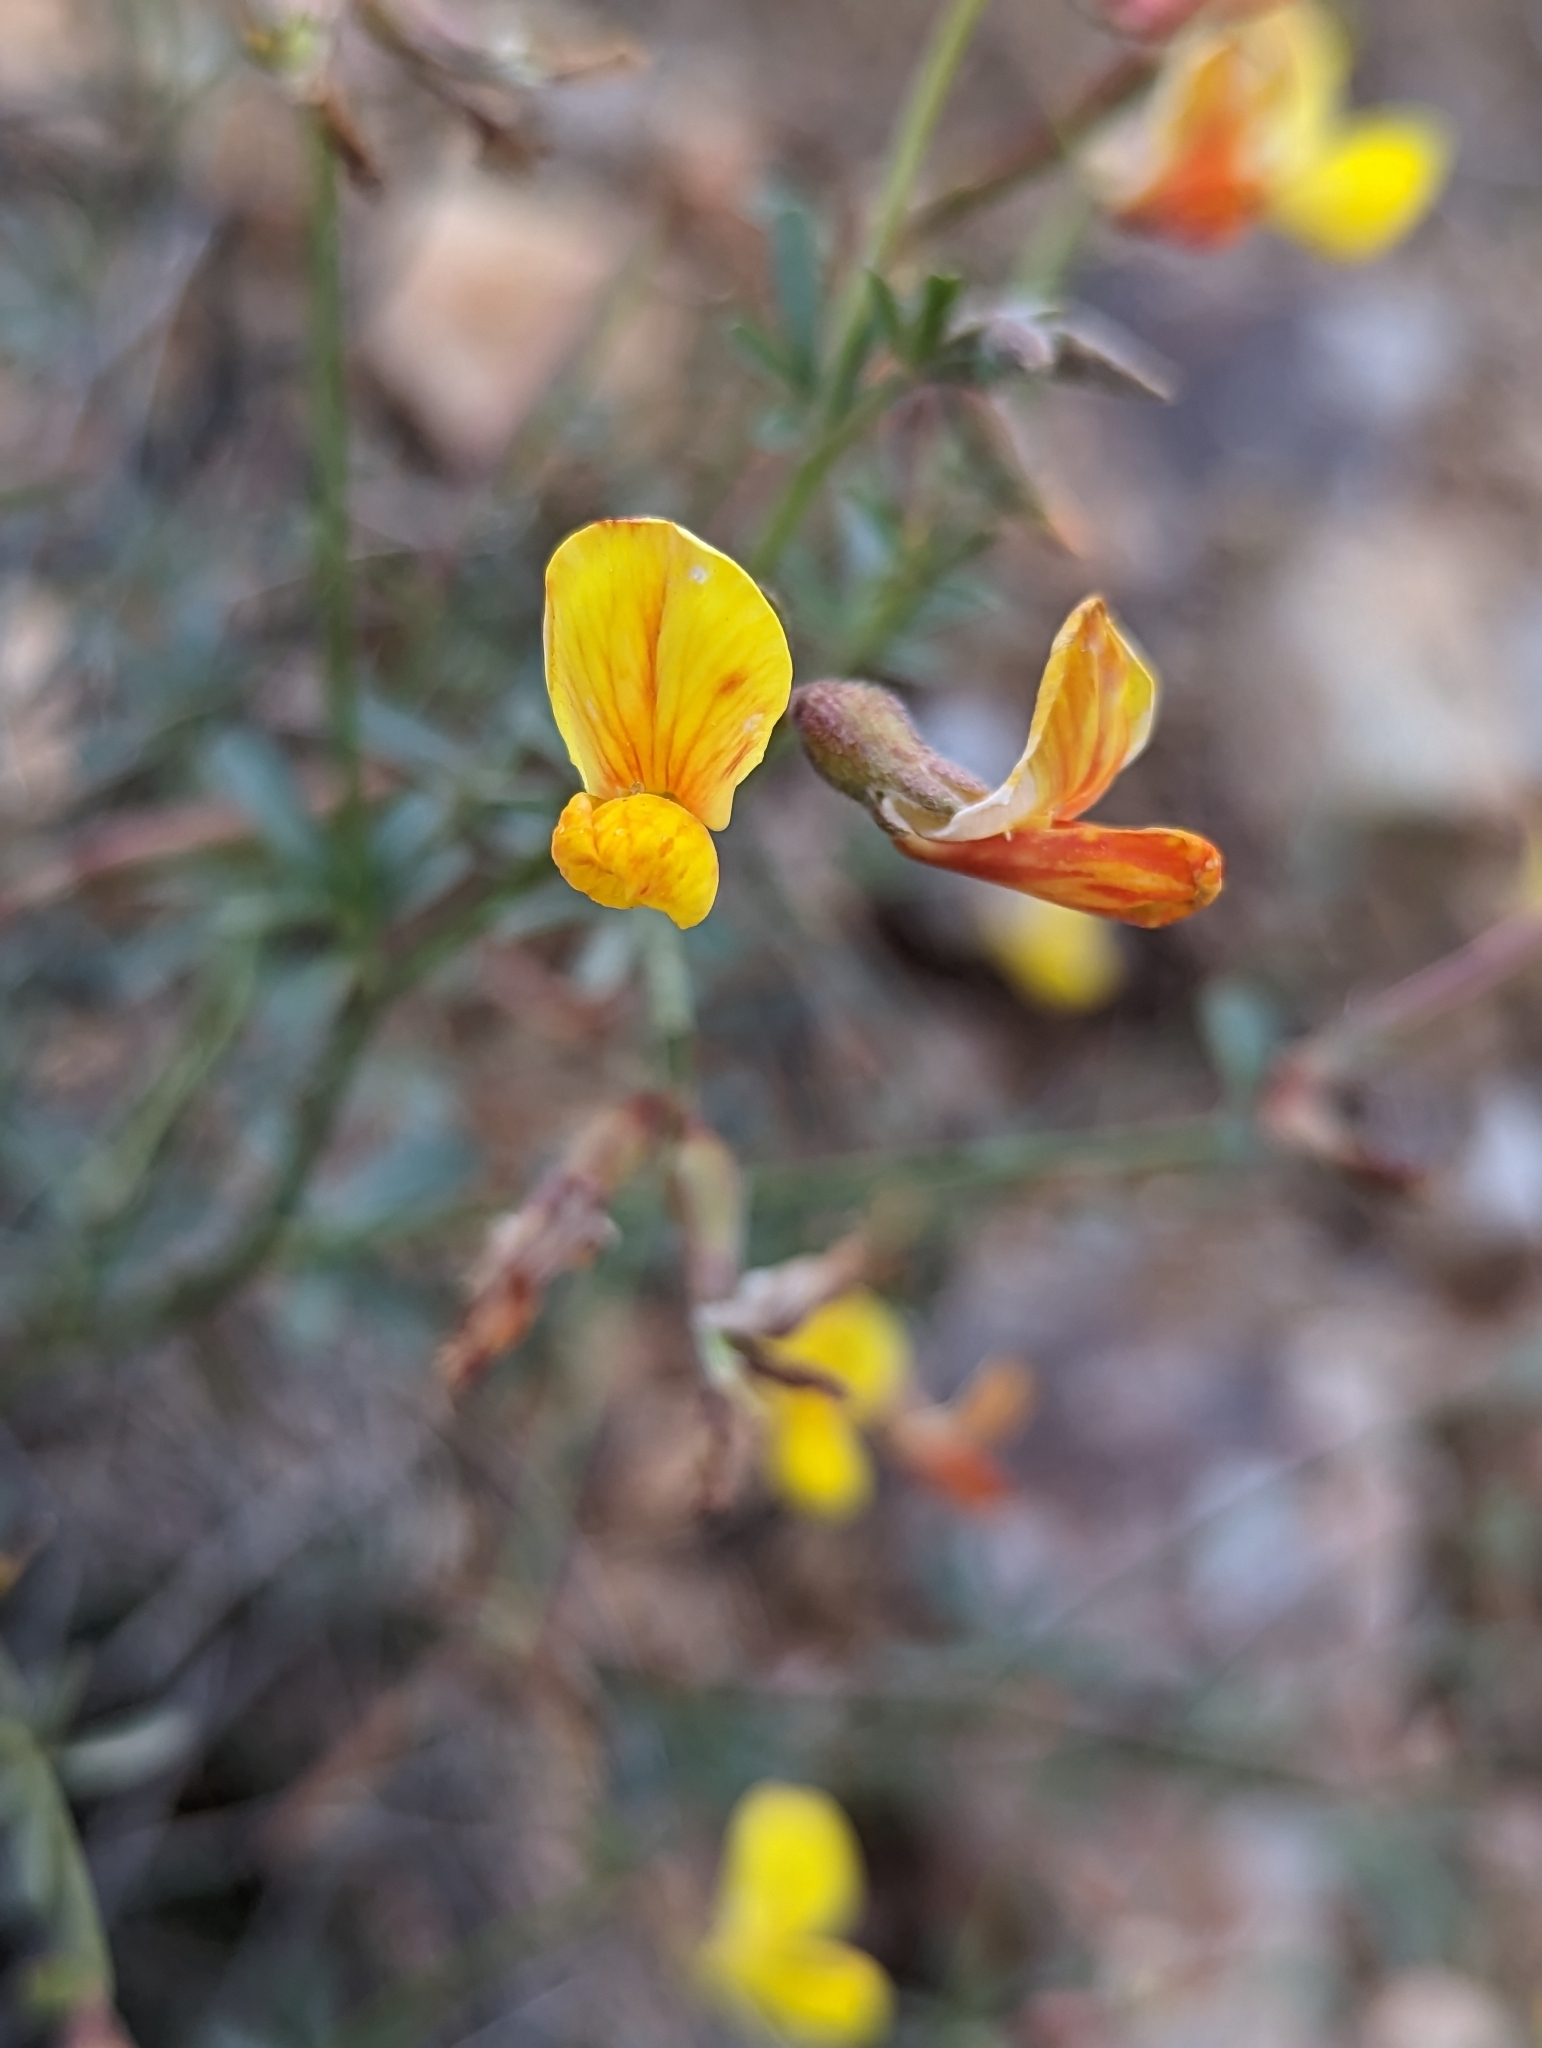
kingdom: Plantae
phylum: Tracheophyta
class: Magnoliopsida
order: Fabales
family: Fabaceae
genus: Acmispon
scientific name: Acmispon rigidus
